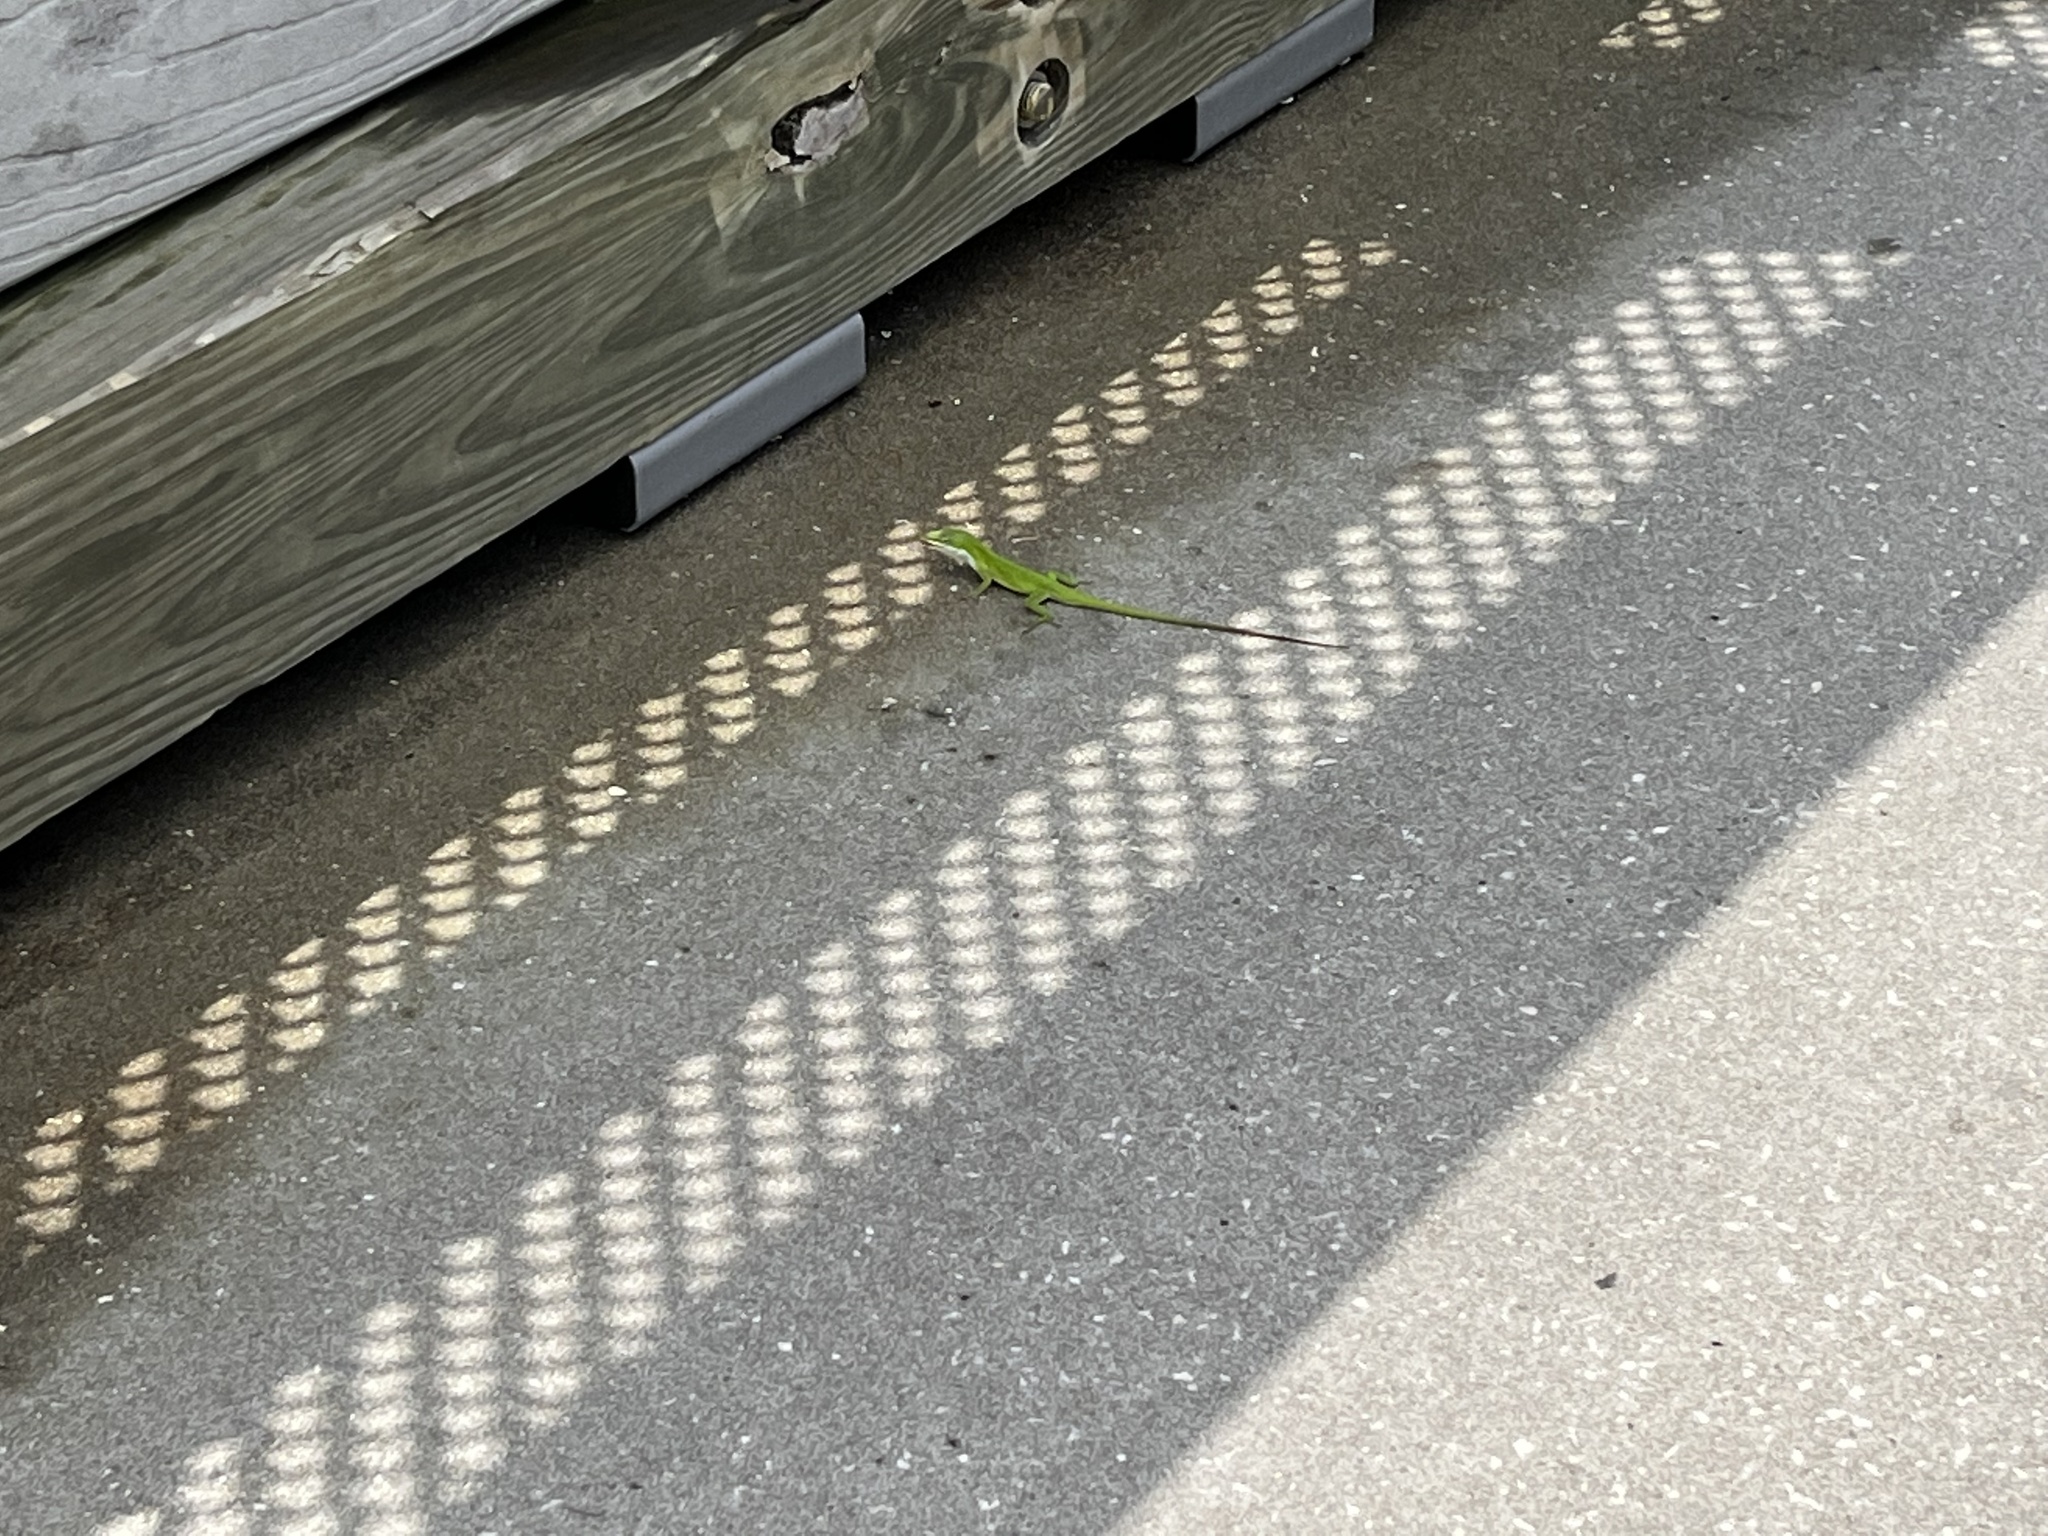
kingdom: Animalia
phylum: Chordata
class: Squamata
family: Dactyloidae
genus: Anolis
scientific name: Anolis carolinensis
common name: Green anole
